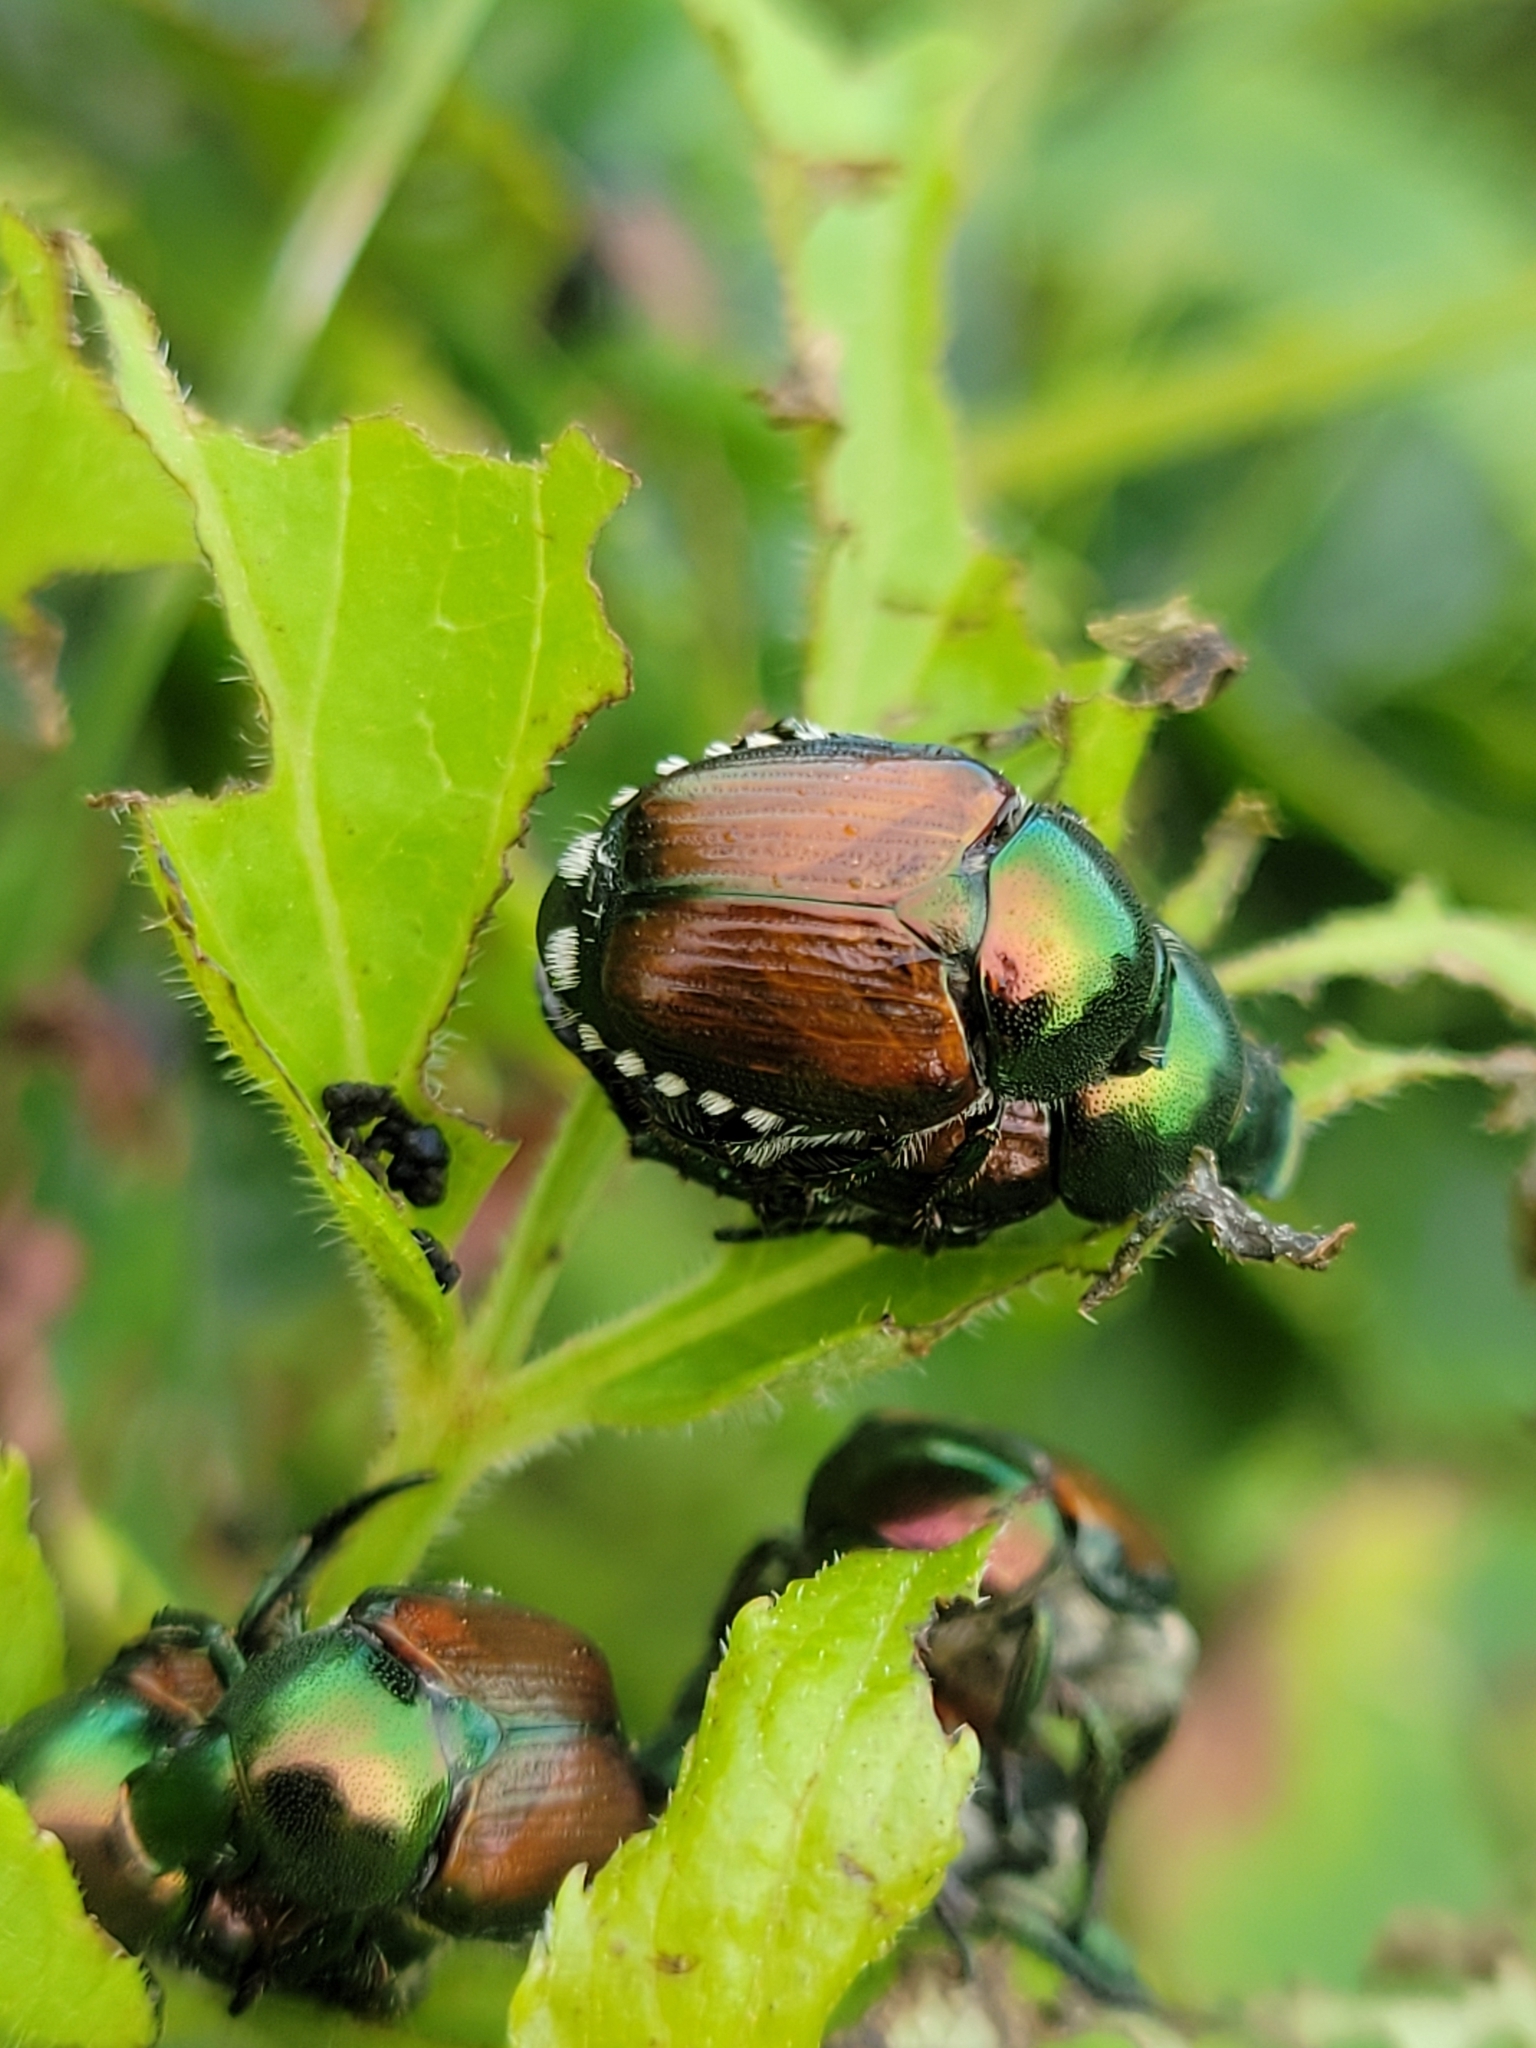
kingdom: Animalia
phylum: Arthropoda
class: Insecta
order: Coleoptera
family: Scarabaeidae
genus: Popillia
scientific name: Popillia japonica
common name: Japanese beetle
